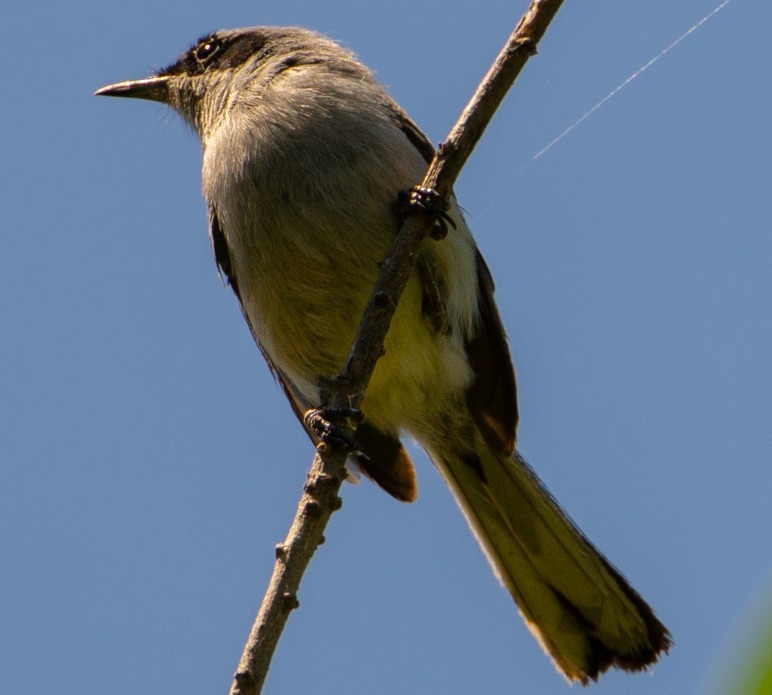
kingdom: Animalia
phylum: Chordata
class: Aves
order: Passeriformes
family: Polioptilidae
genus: Polioptila
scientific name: Polioptila dumicola
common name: Masked gnatcatcher
